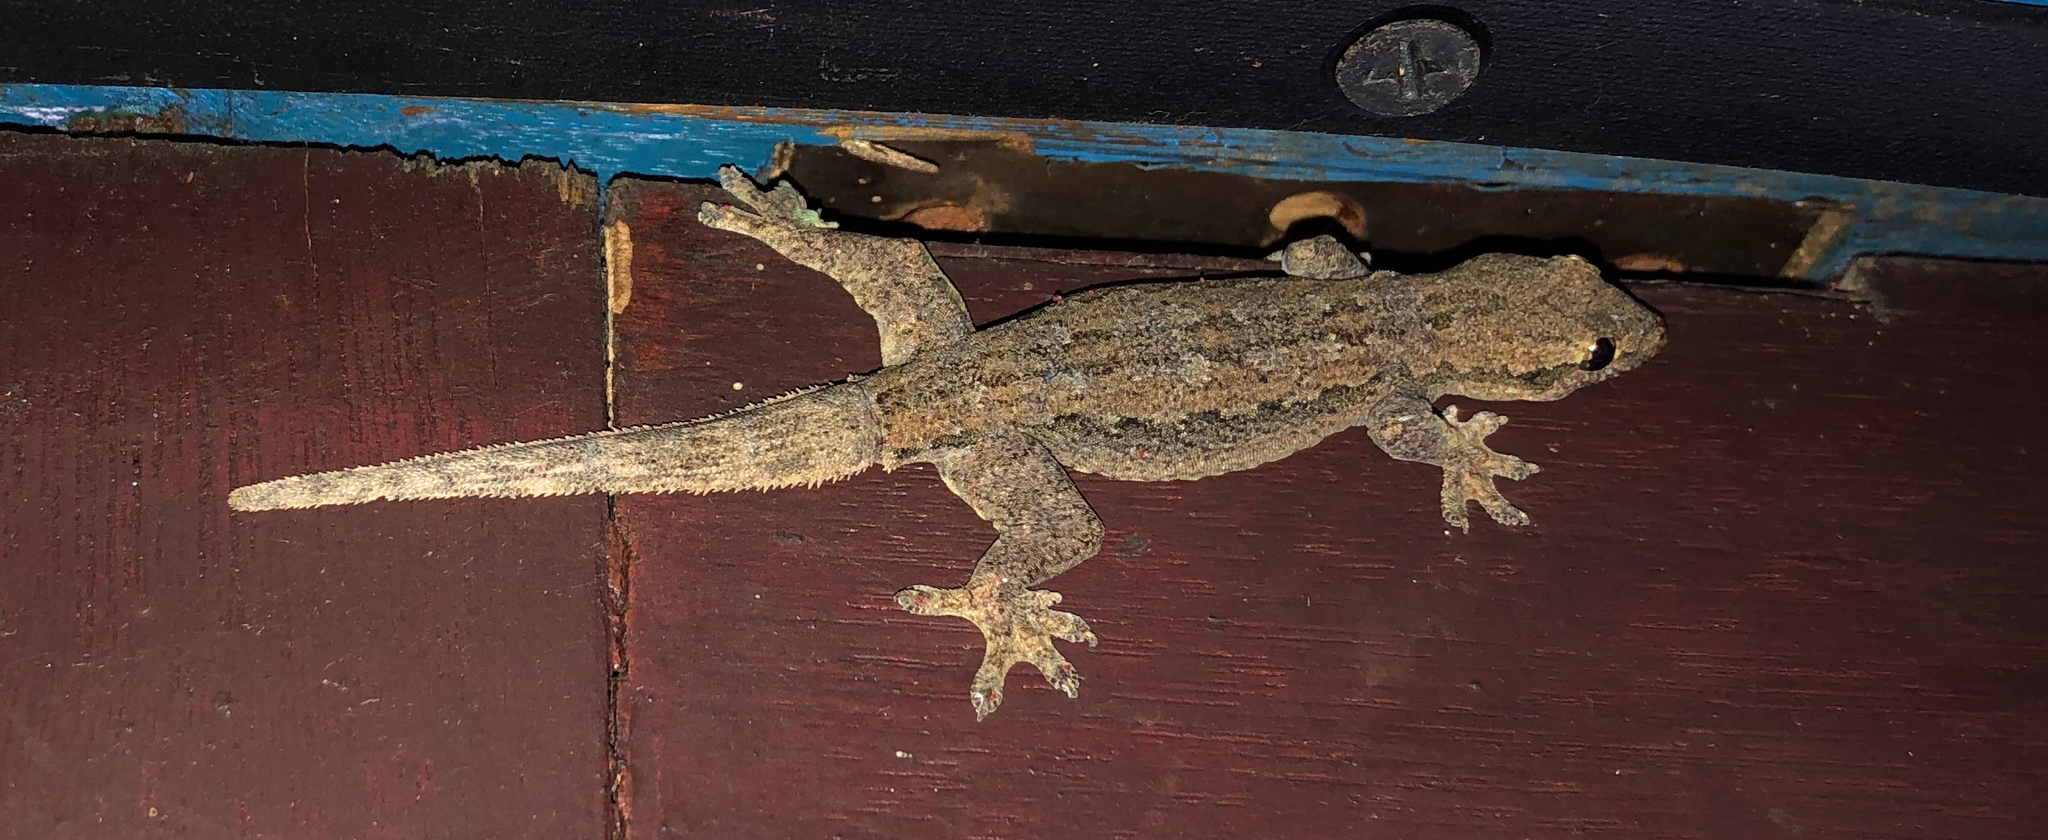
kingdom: Animalia
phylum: Chordata
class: Squamata
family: Gekkonidae
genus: Hemidactylus
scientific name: Hemidactylus platyurus
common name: Flat-tailed house gecko
